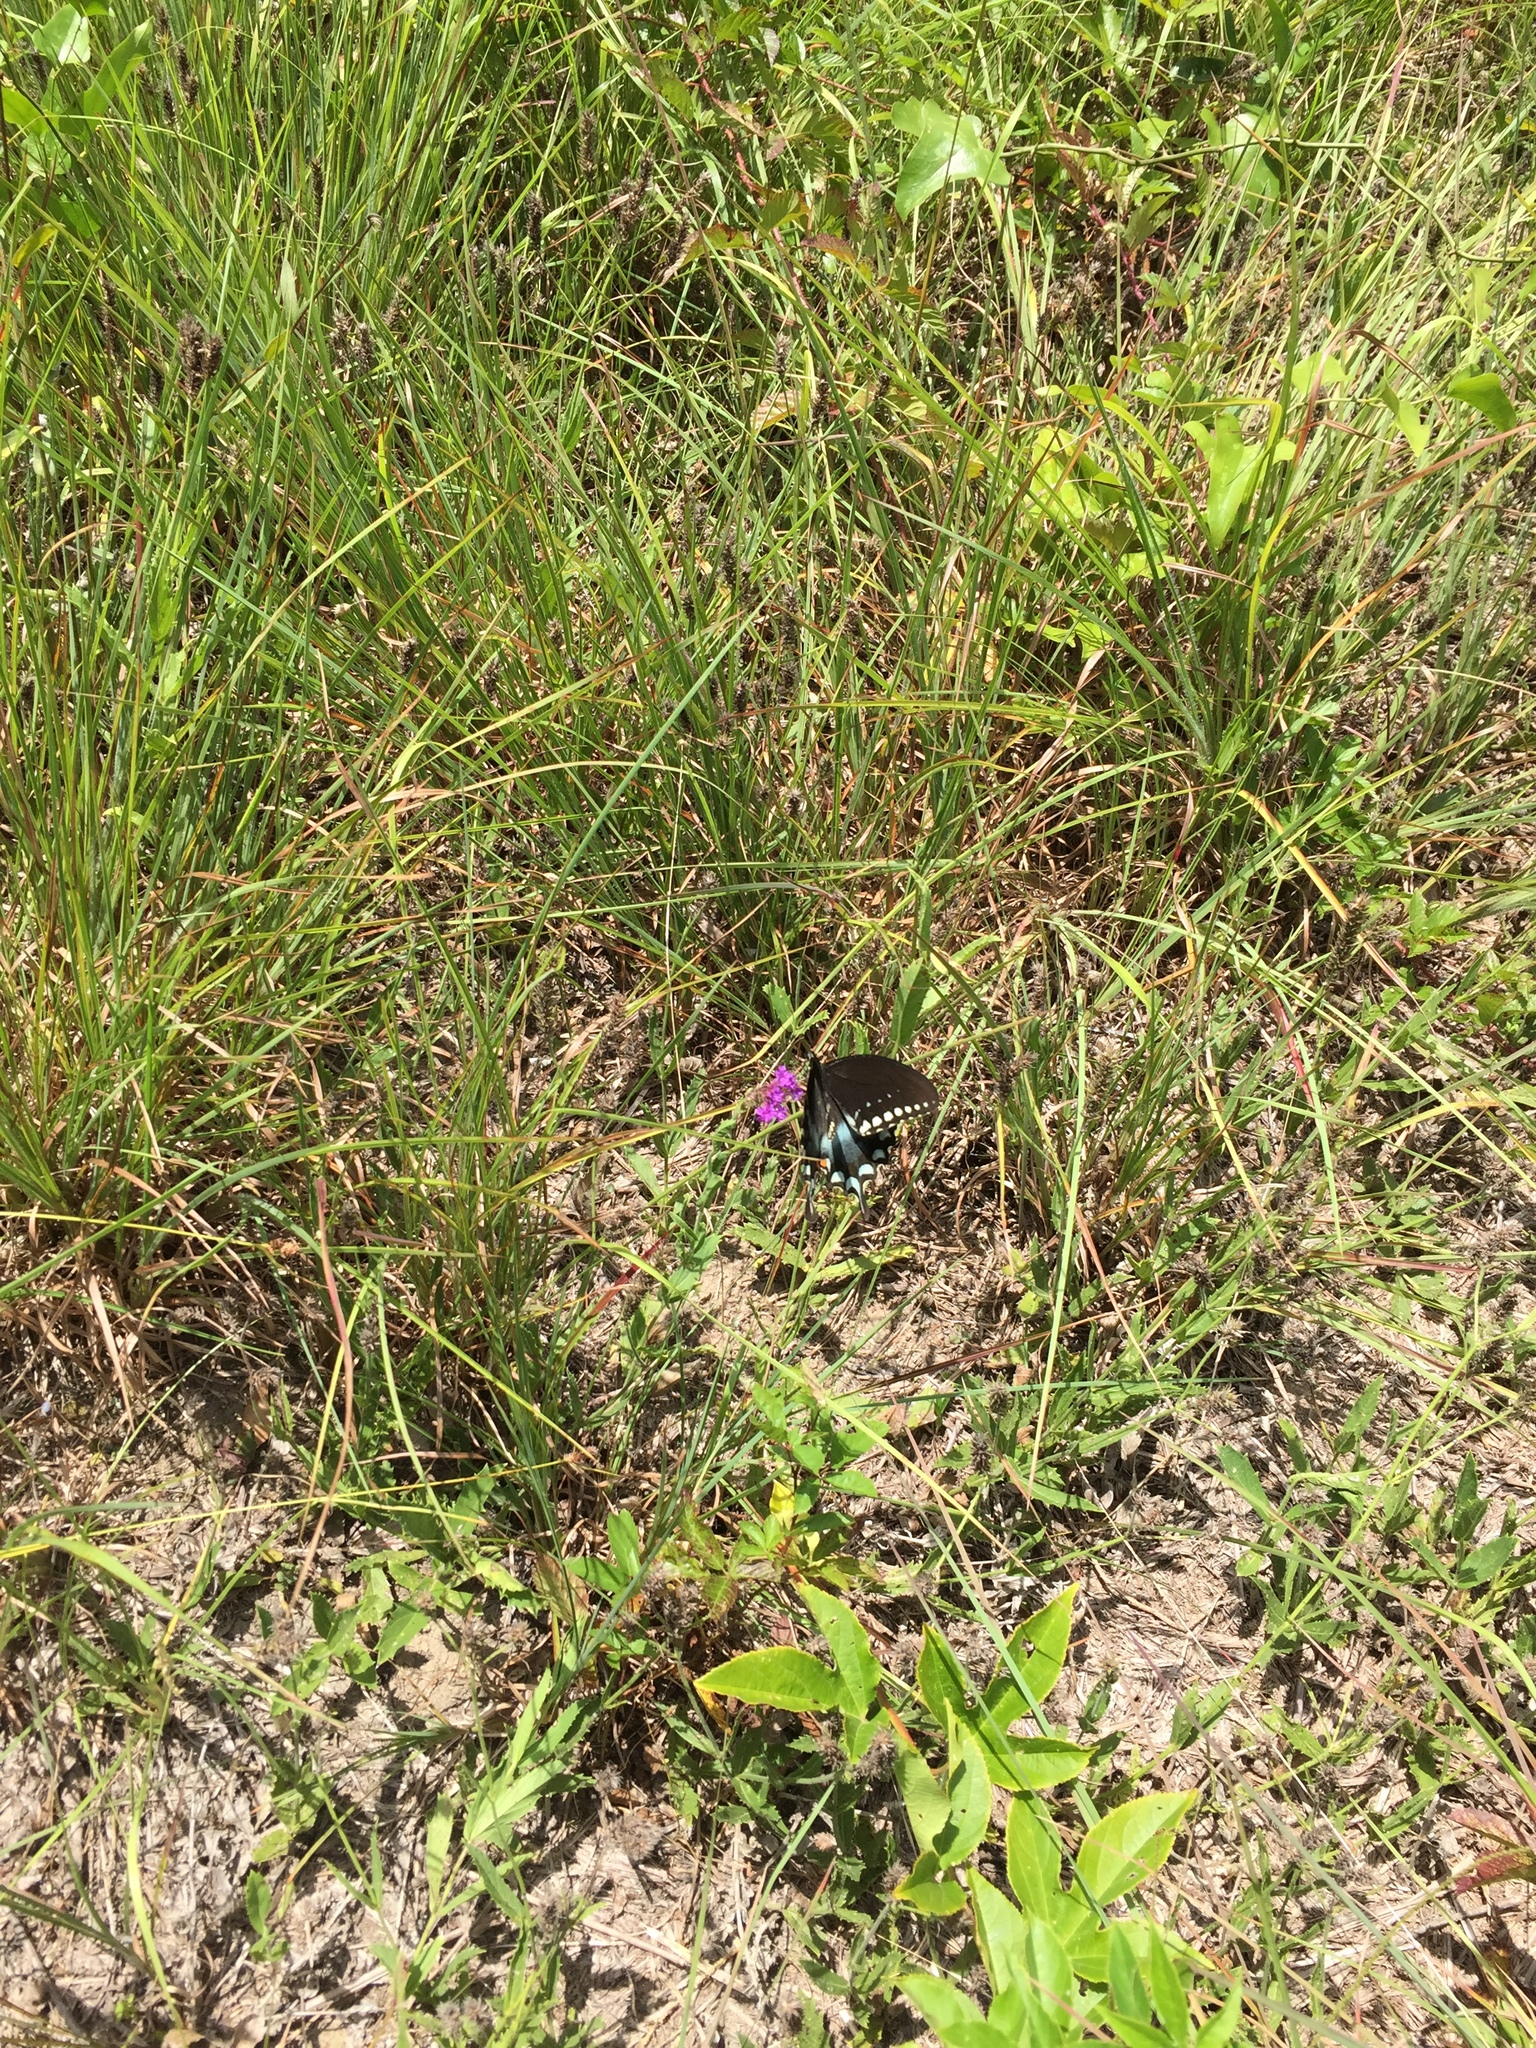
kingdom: Animalia
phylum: Arthropoda
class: Insecta
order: Lepidoptera
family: Papilionidae
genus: Papilio
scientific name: Papilio troilus
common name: Spicebush swallowtail
